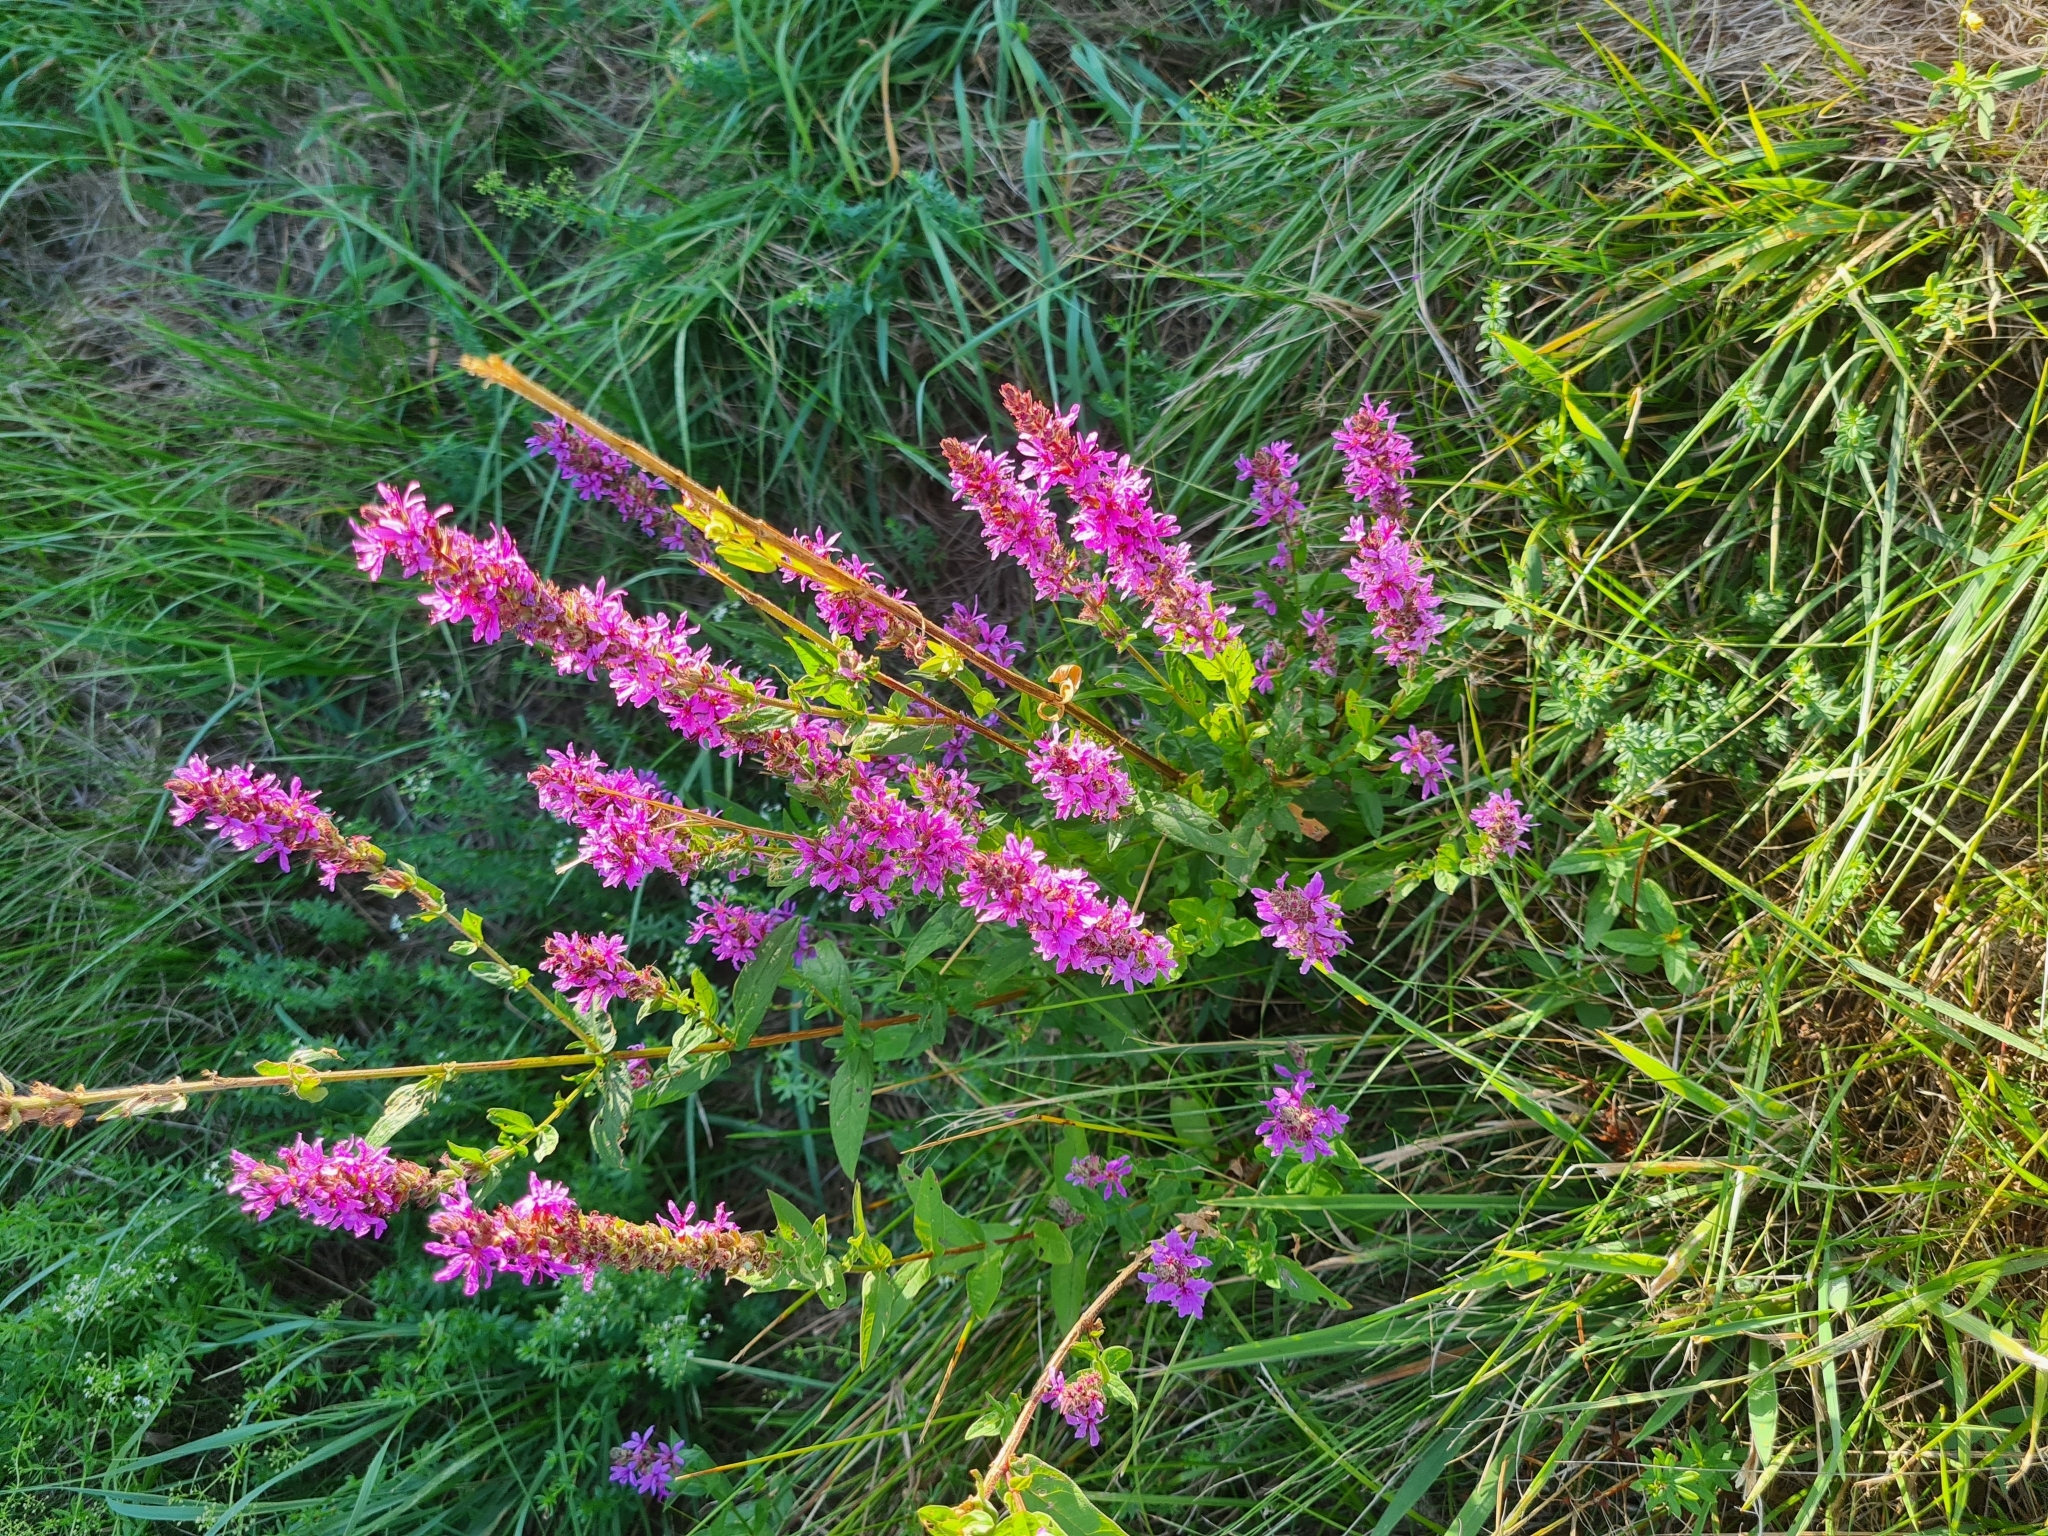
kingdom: Plantae
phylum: Tracheophyta
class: Magnoliopsida
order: Myrtales
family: Lythraceae
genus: Lythrum
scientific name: Lythrum salicaria
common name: Purple loosestrife
